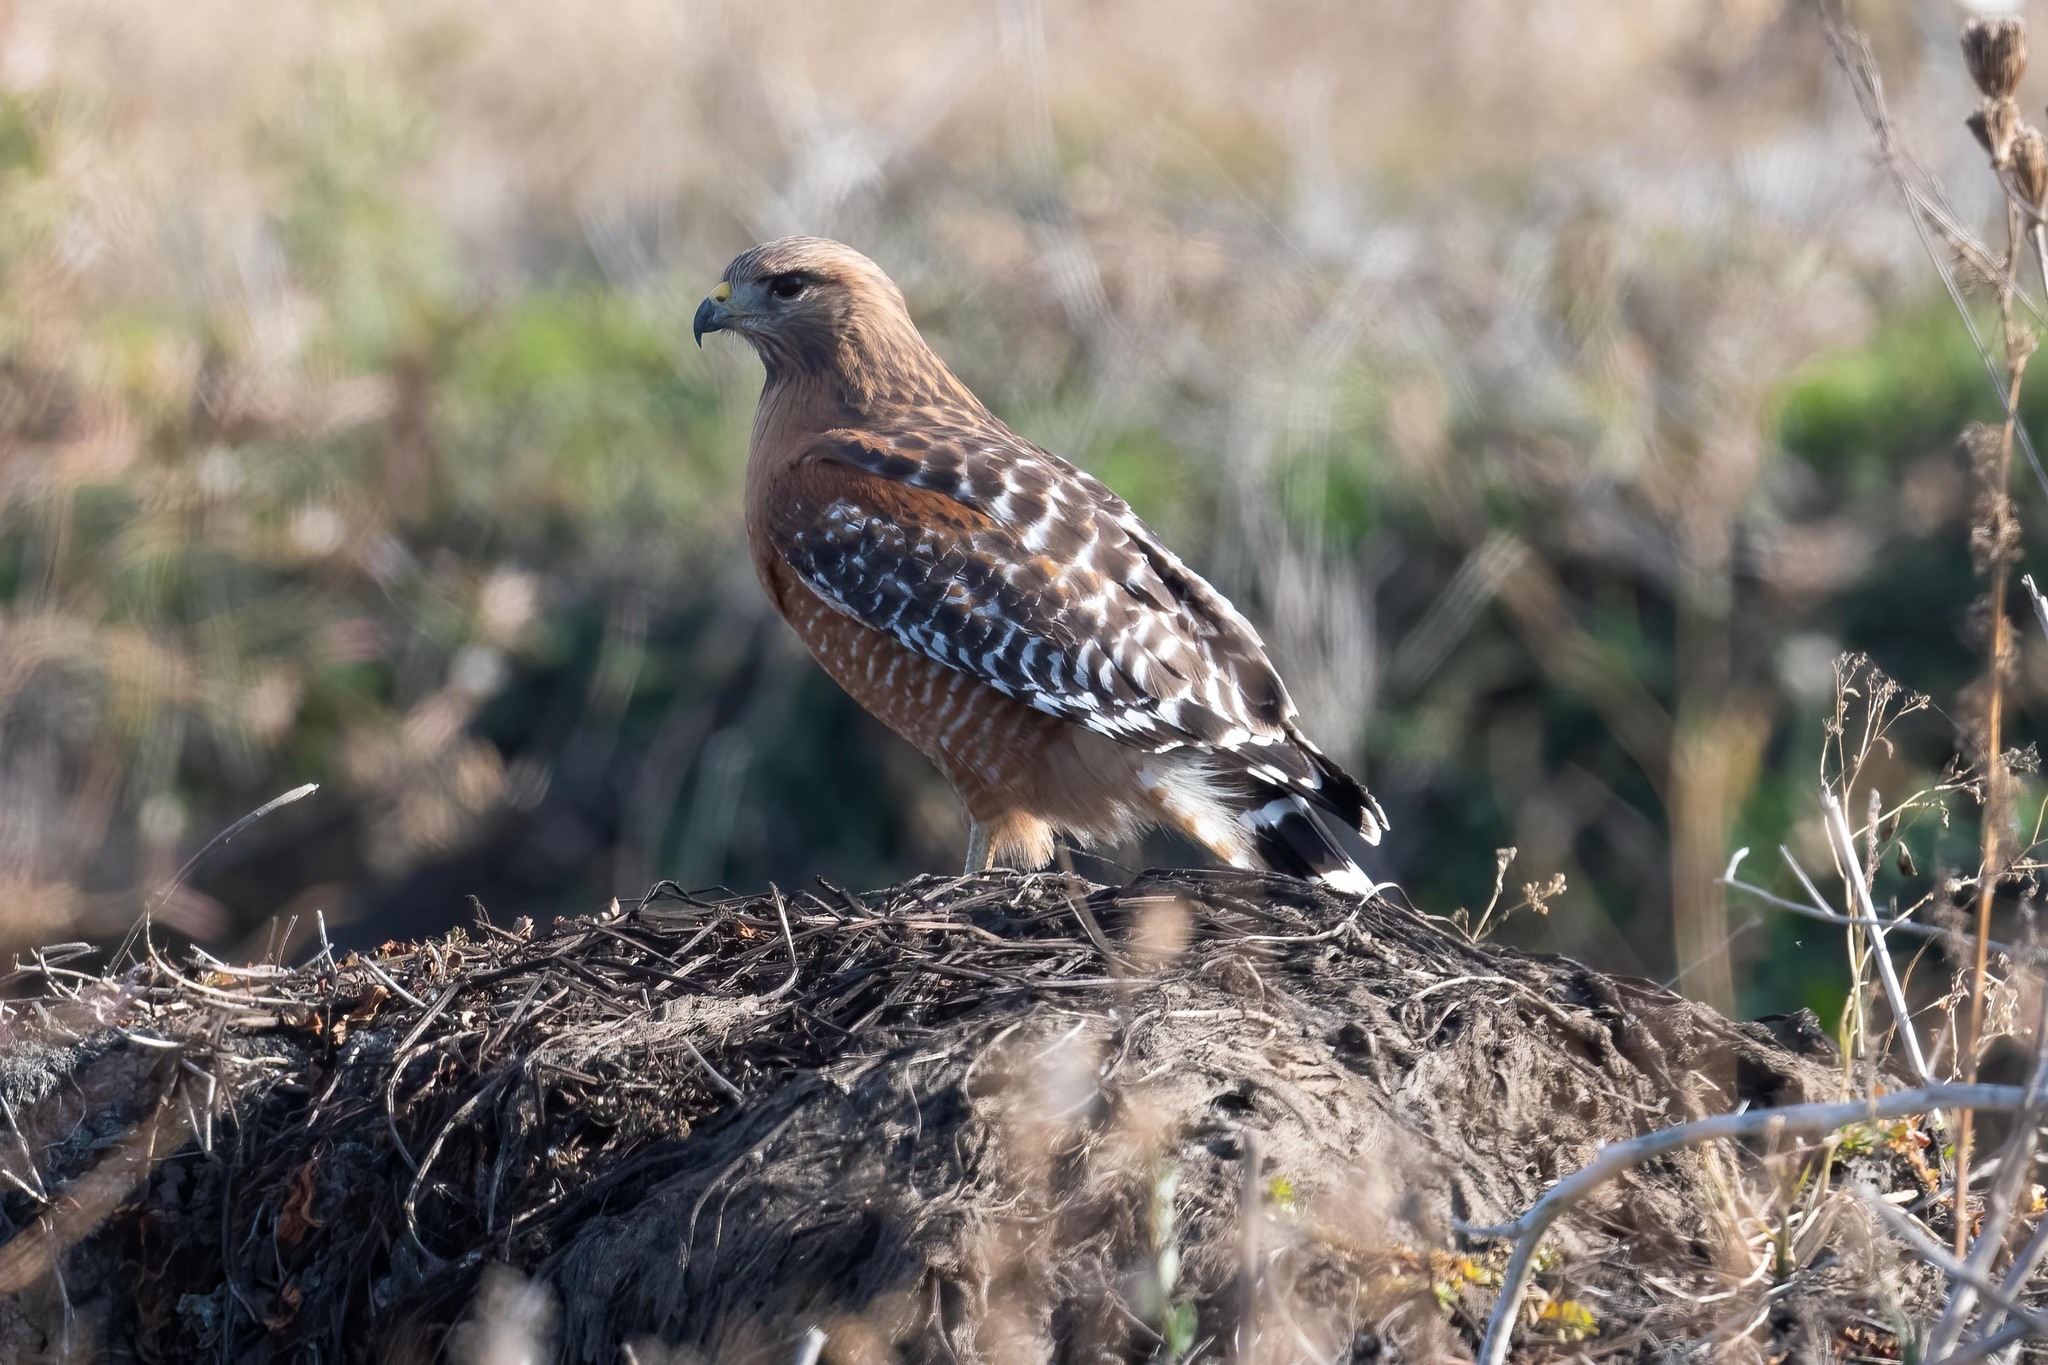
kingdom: Animalia
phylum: Chordata
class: Aves
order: Accipitriformes
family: Accipitridae
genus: Buteo
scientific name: Buteo lineatus
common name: Red-shouldered hawk
